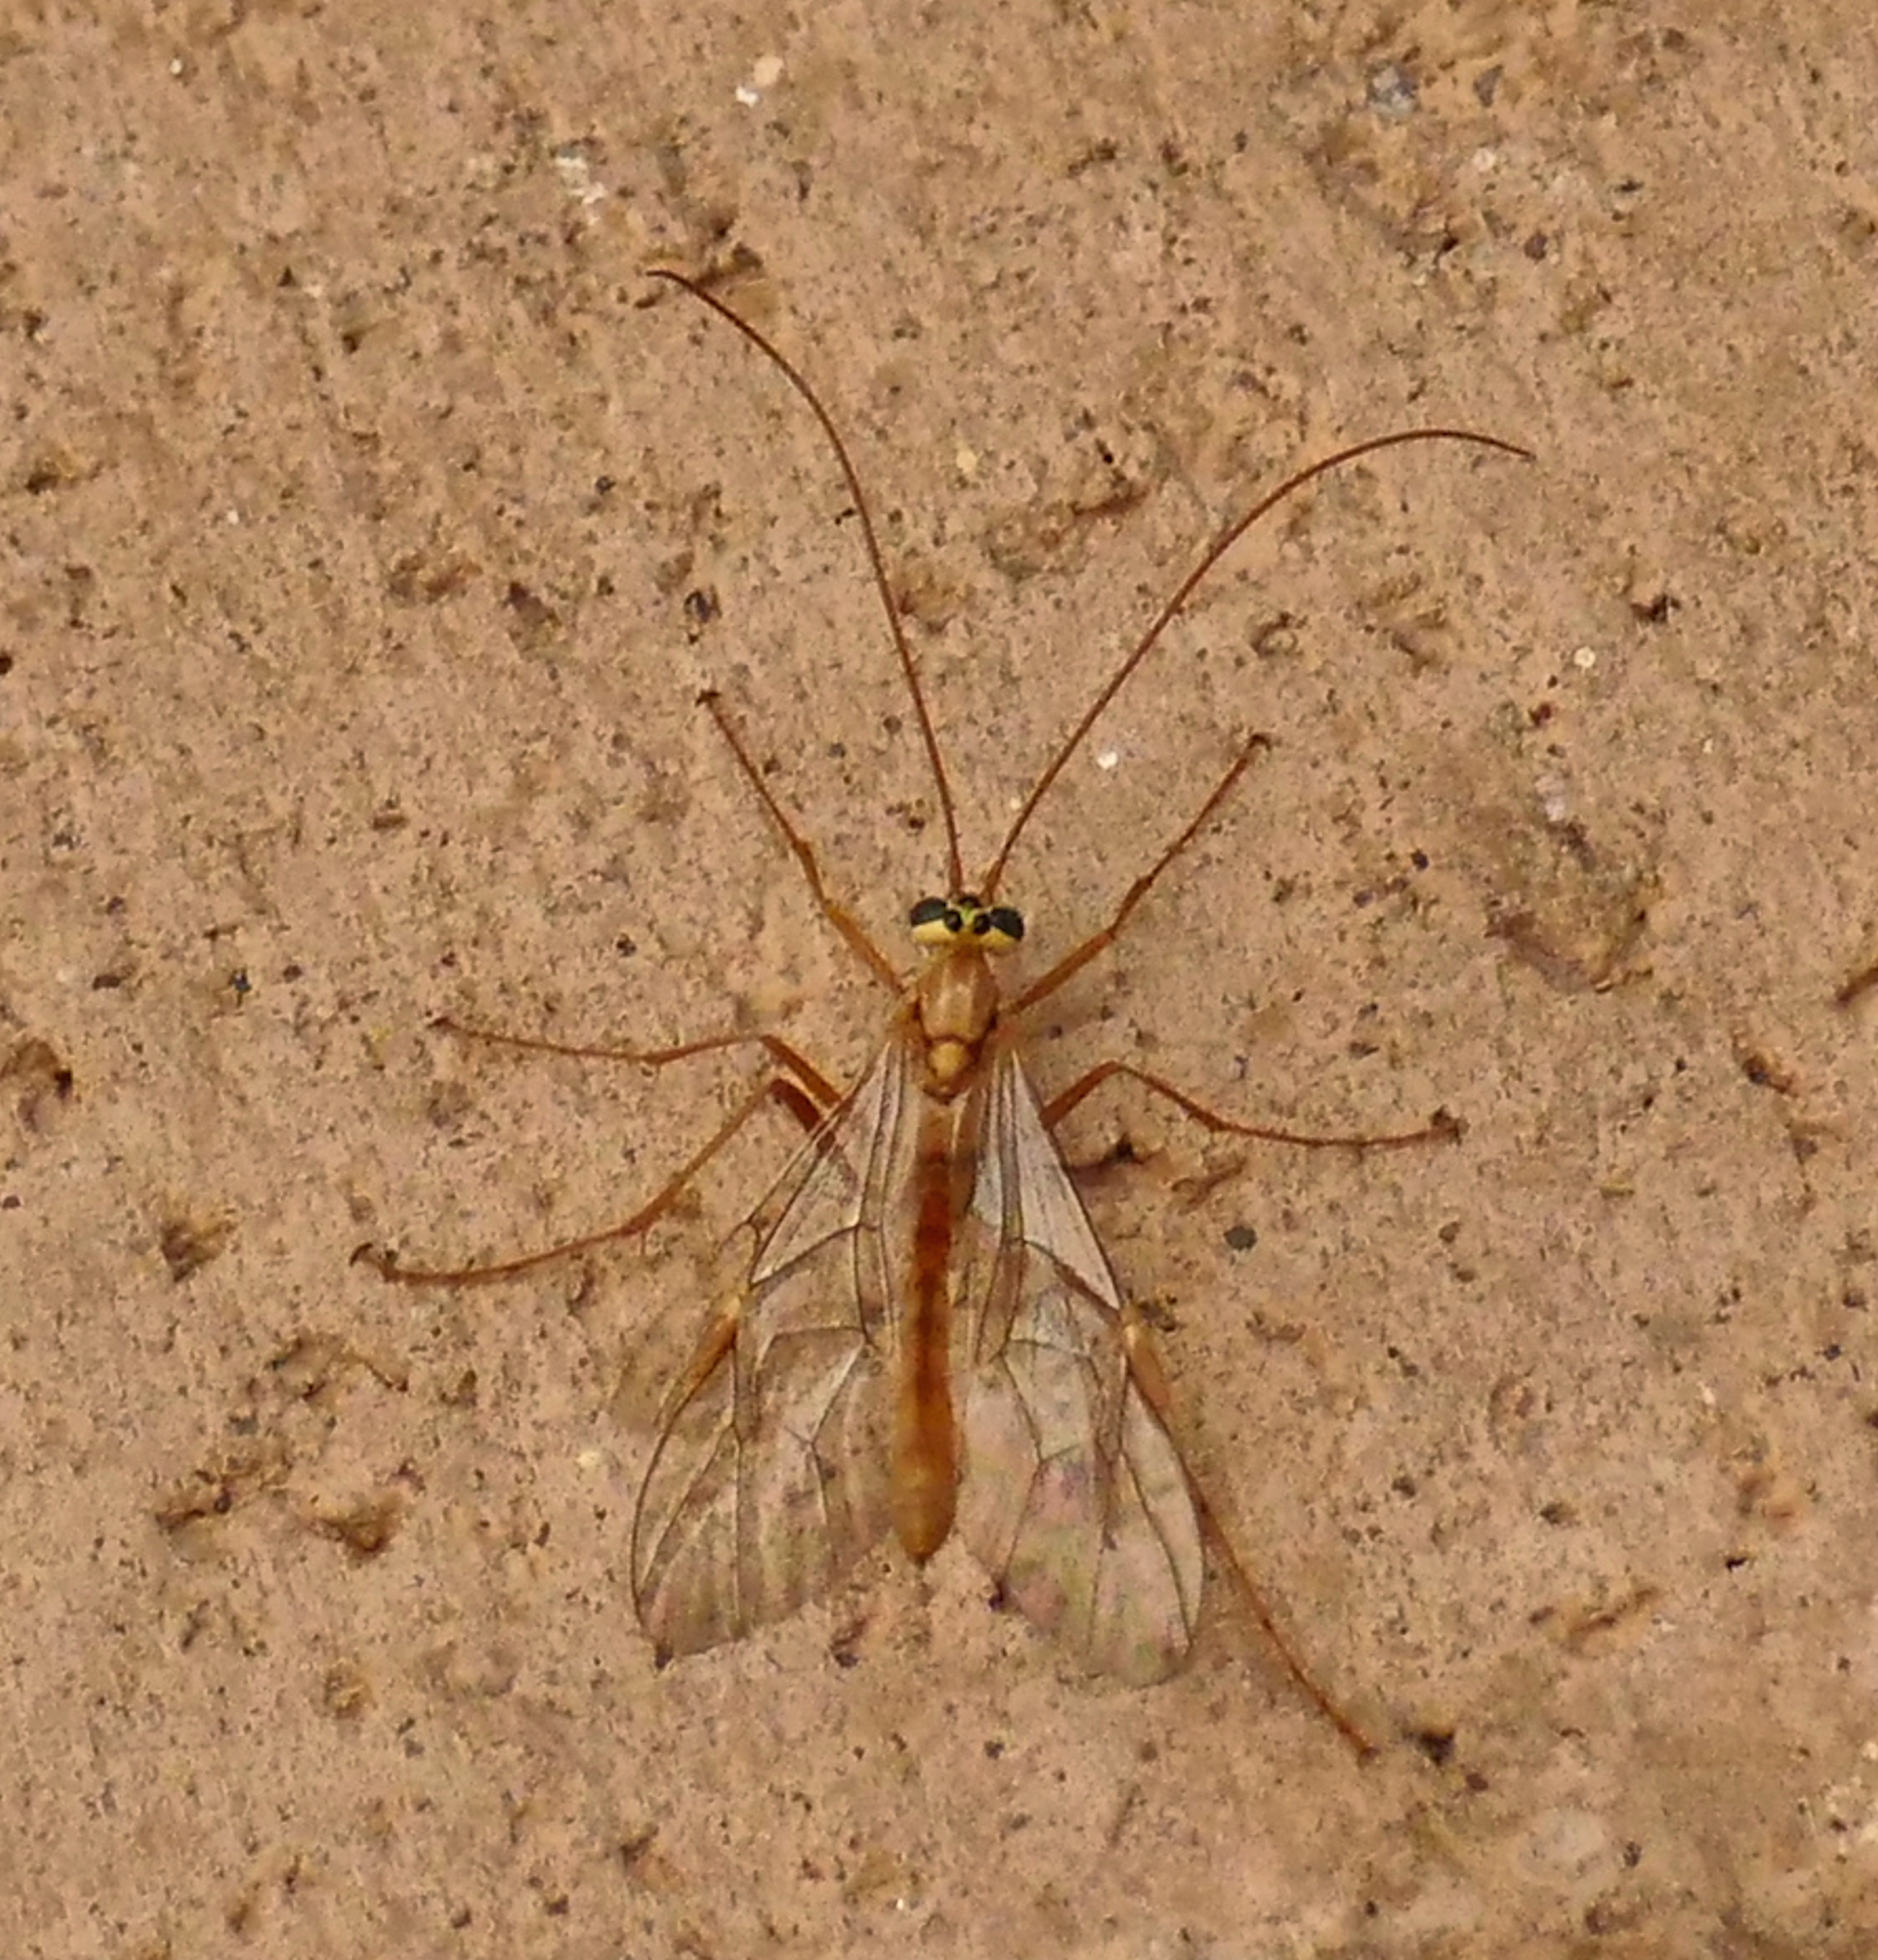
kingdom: Animalia
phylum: Arthropoda
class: Insecta
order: Hymenoptera
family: Ichneumonidae
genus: Ophion
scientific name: Ophion
